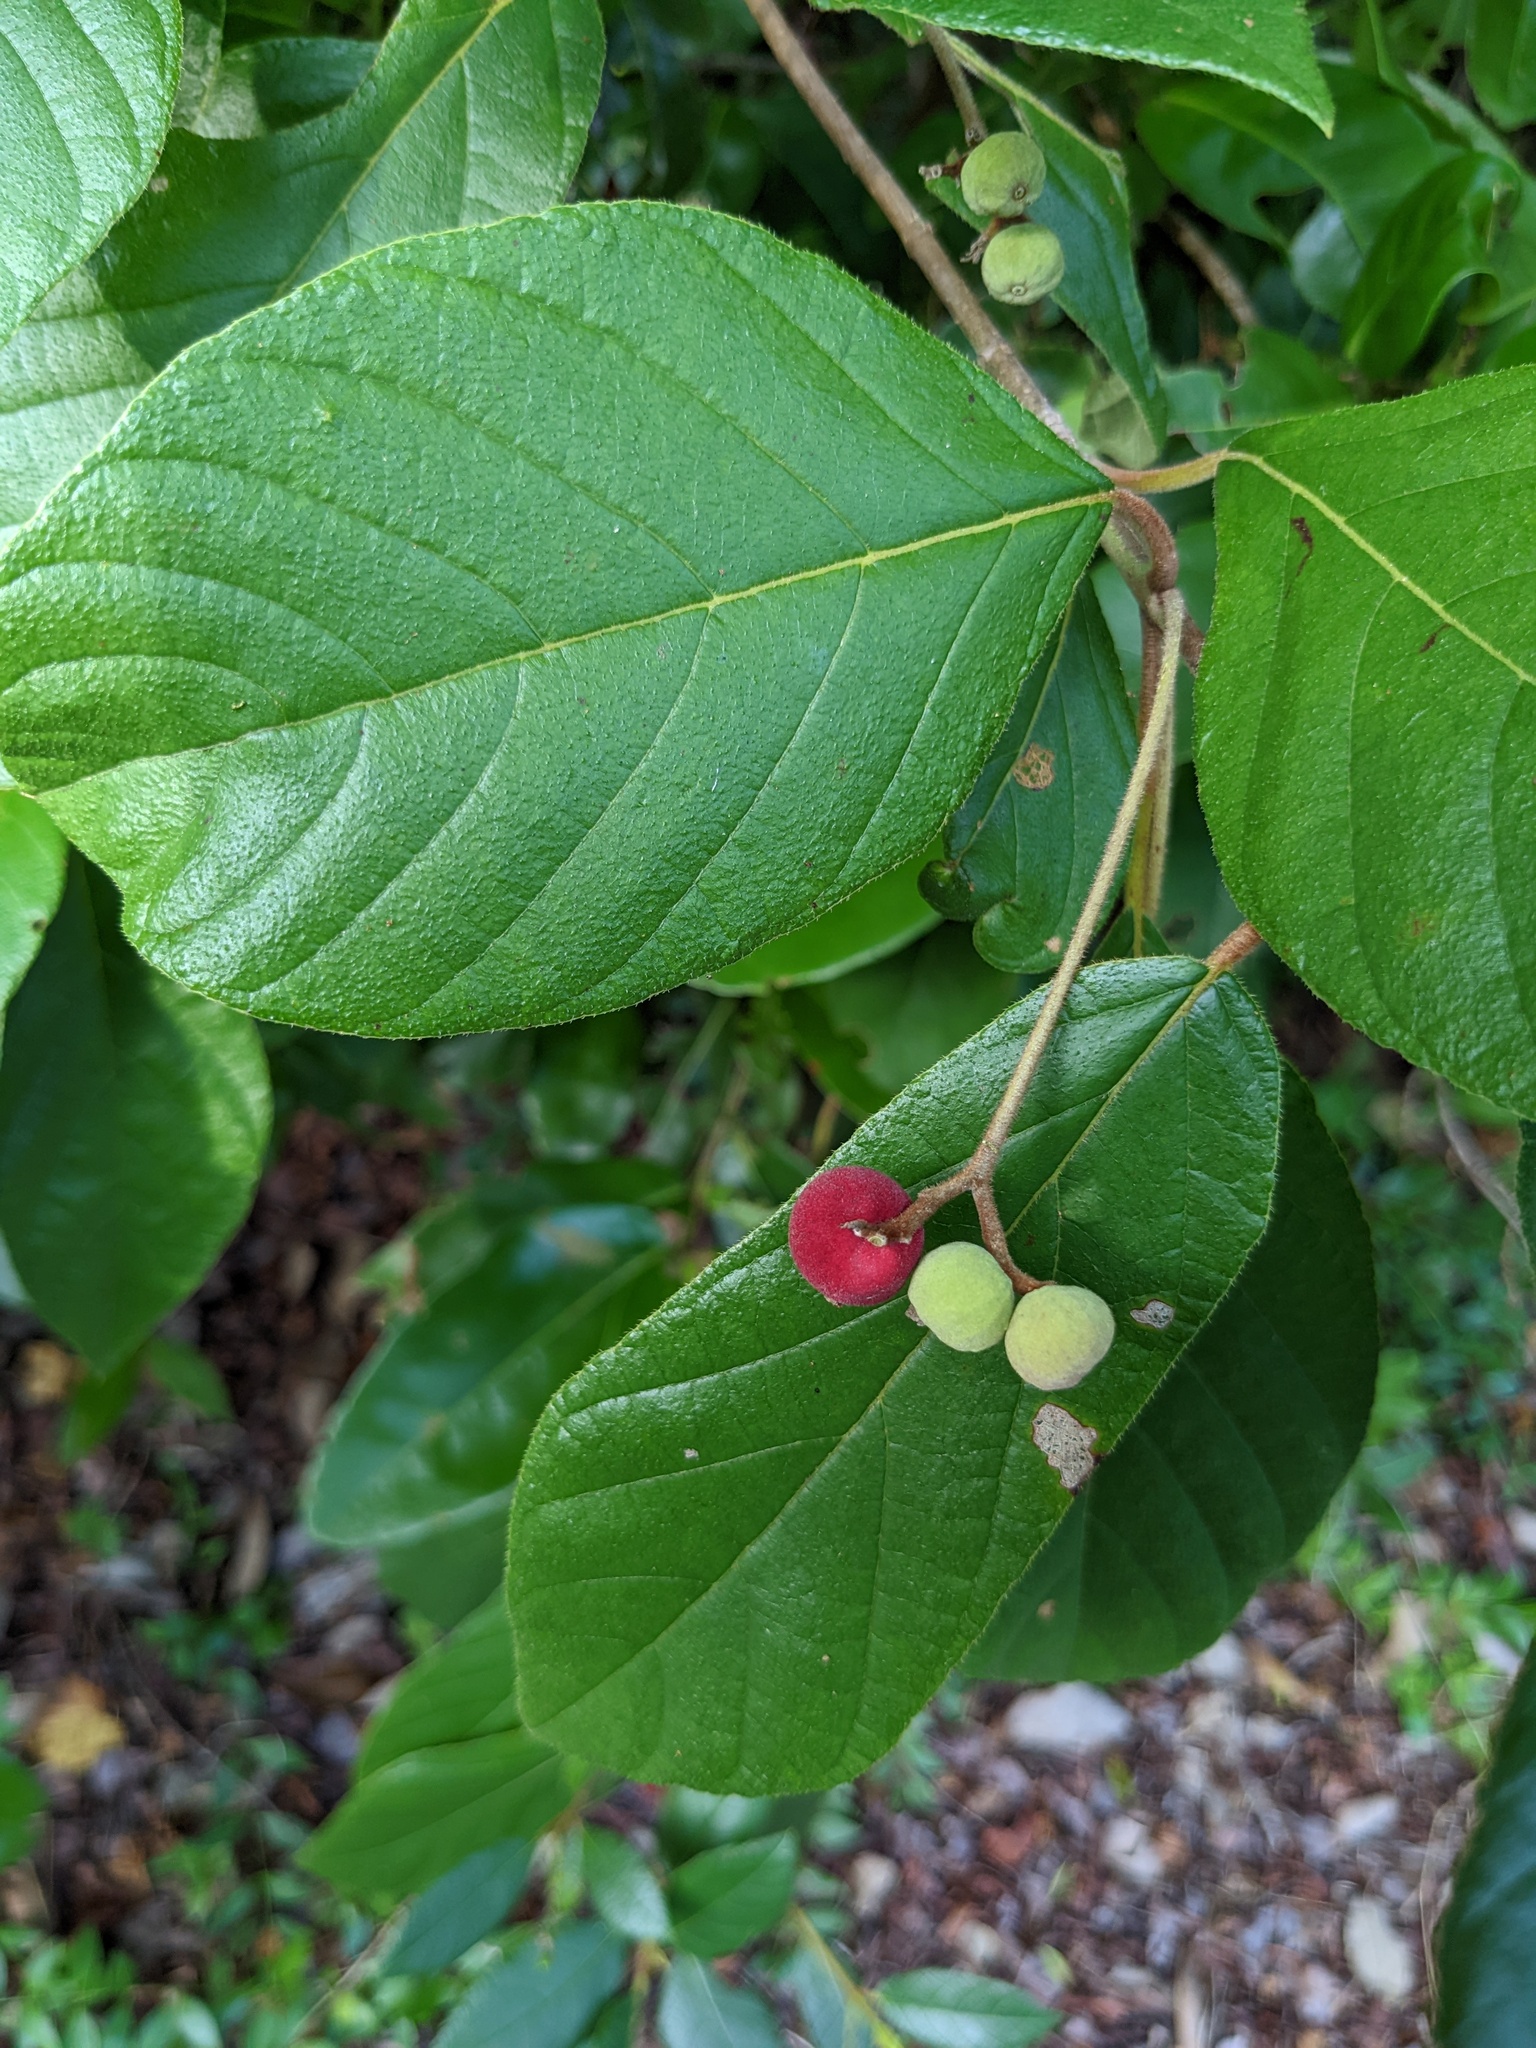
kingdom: Plantae
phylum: Tracheophyta
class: Magnoliopsida
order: Gentianales
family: Rubiaceae
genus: Guettarda
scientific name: Guettarda scabra
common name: Pigeon bay
